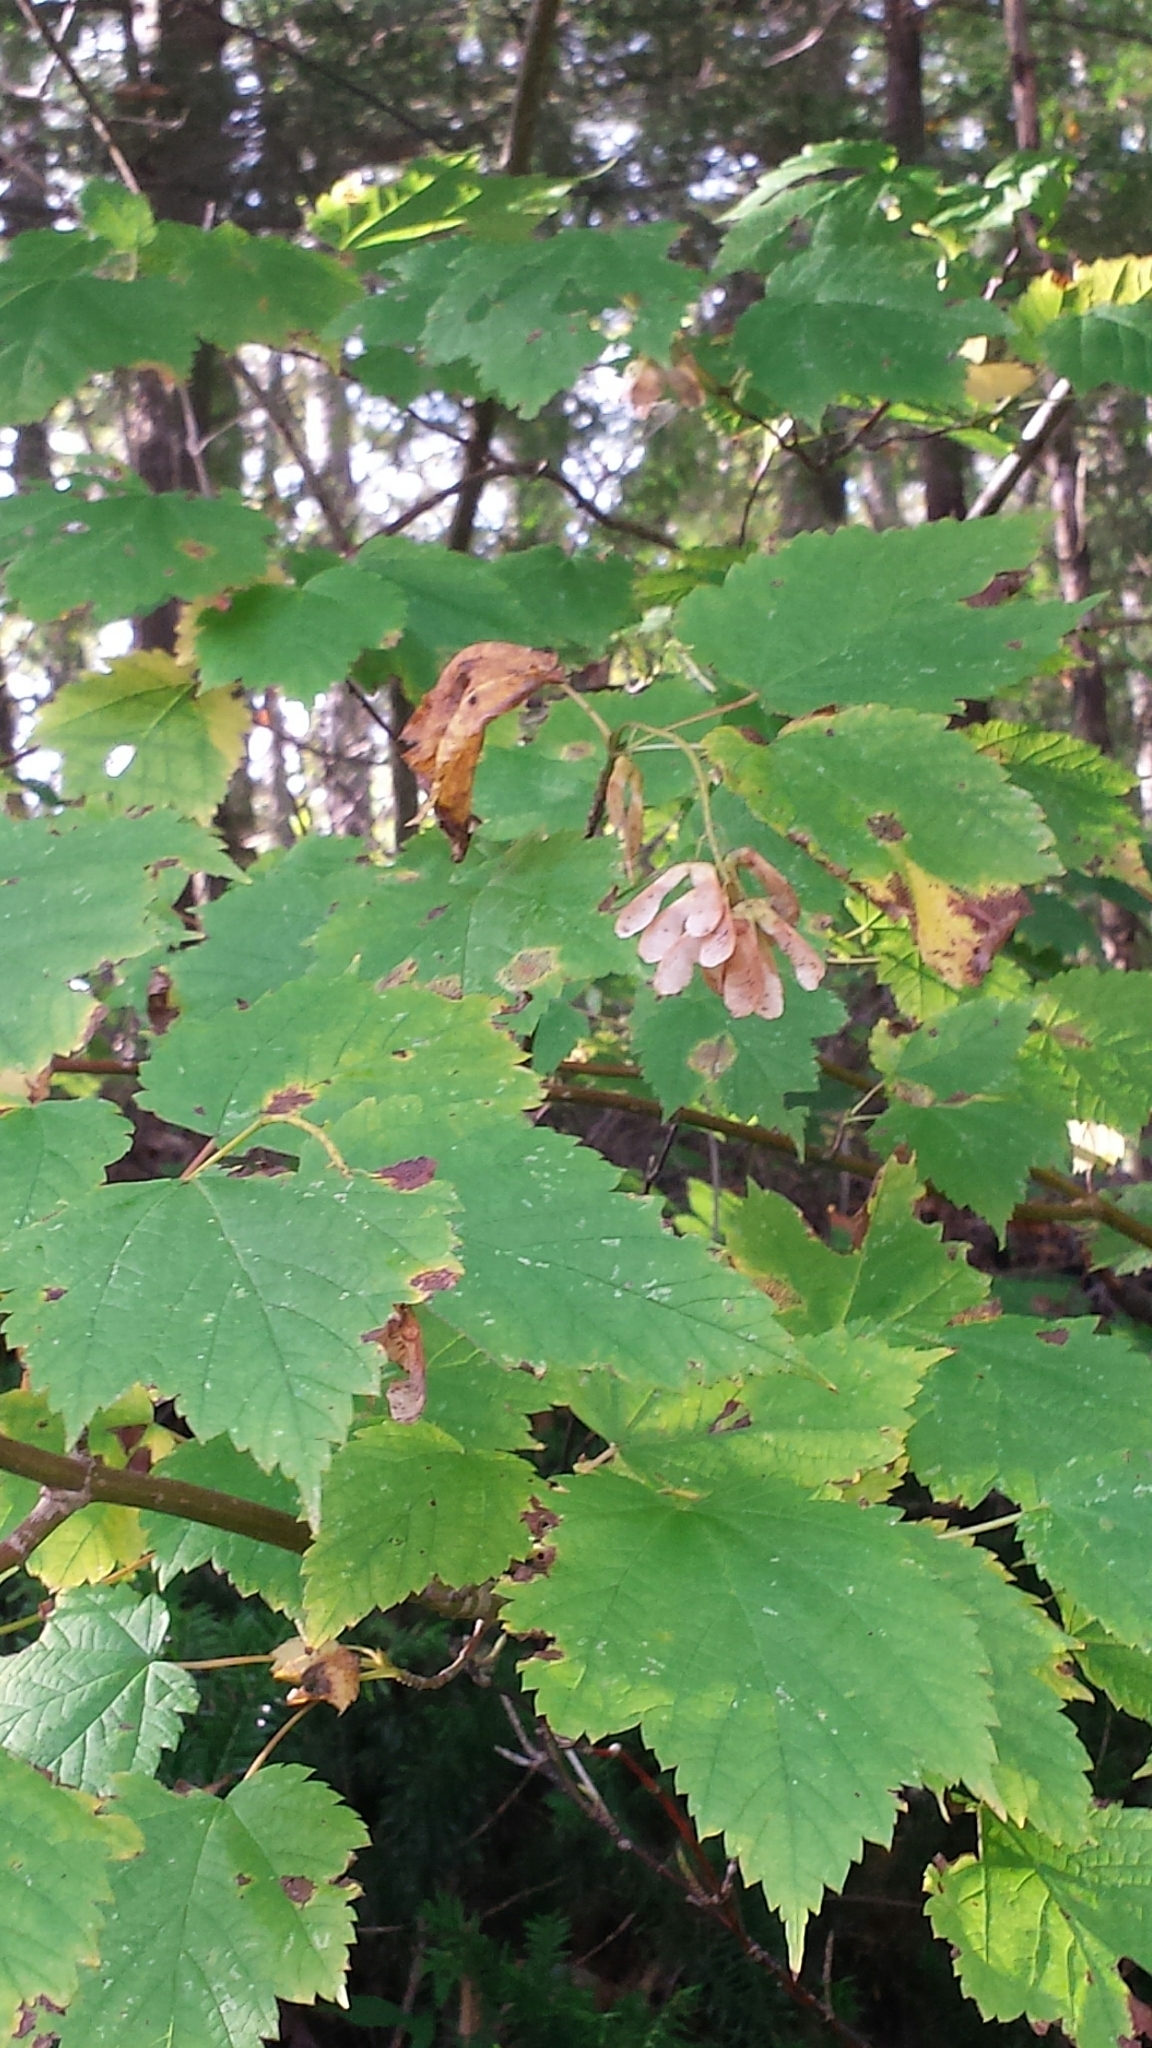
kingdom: Plantae
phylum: Tracheophyta
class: Magnoliopsida
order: Sapindales
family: Sapindaceae
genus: Acer
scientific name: Acer spicatum
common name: Mountain maple
